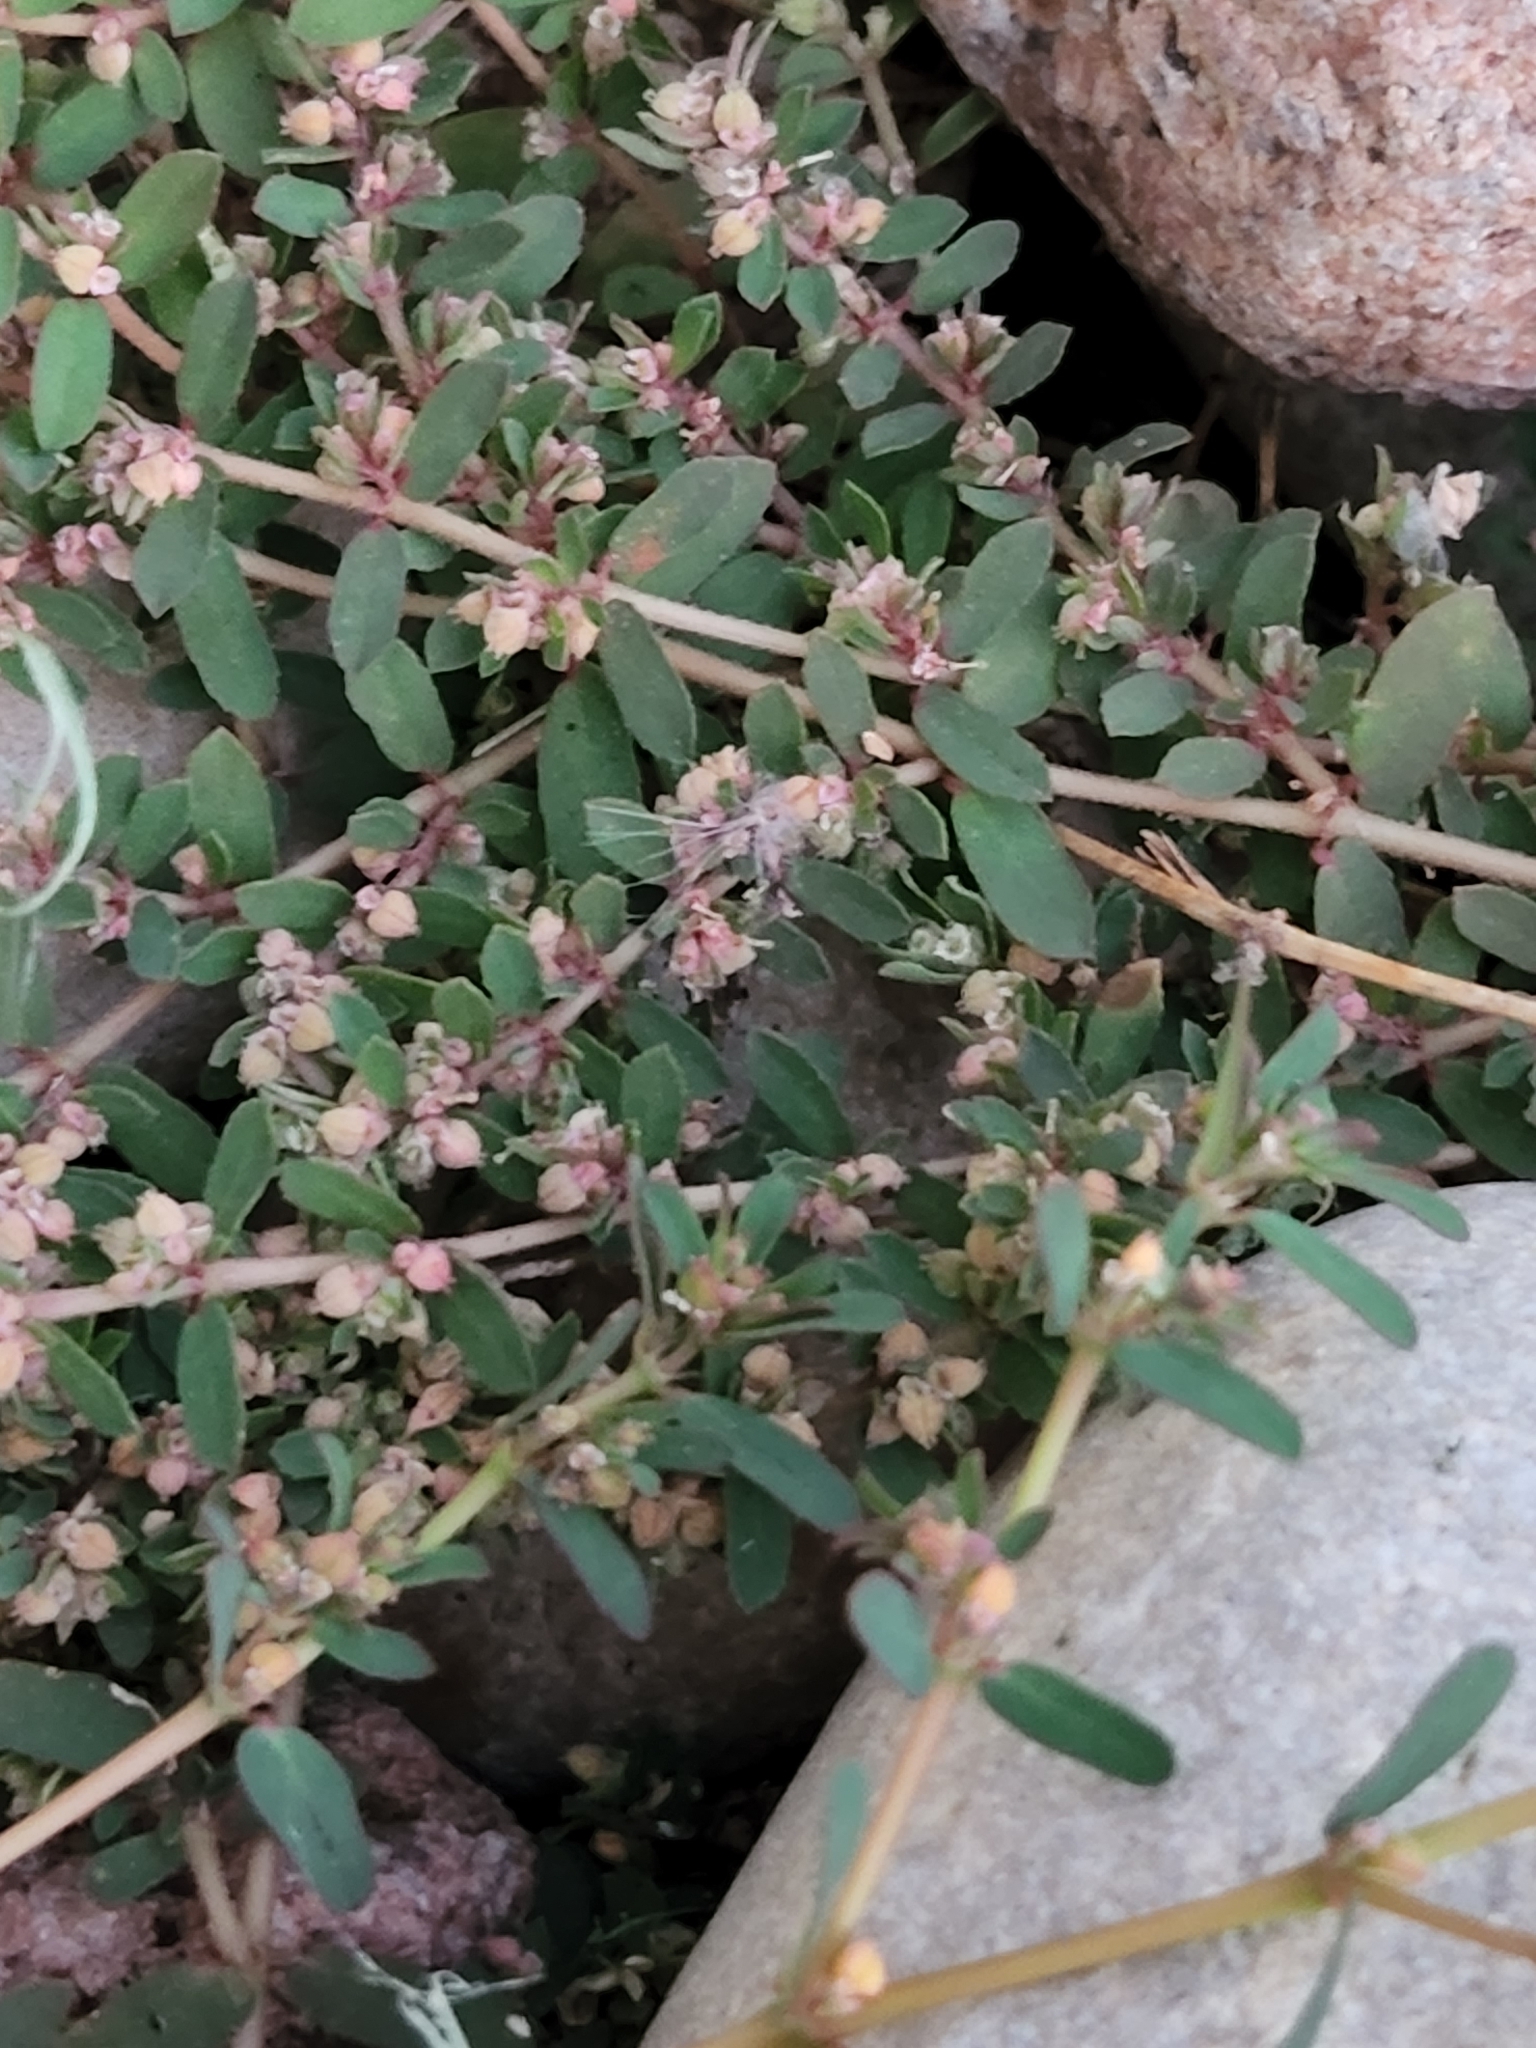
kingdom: Plantae
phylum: Tracheophyta
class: Magnoliopsida
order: Malpighiales
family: Euphorbiaceae
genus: Euphorbia
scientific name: Euphorbia maculata
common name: Spotted spurge
